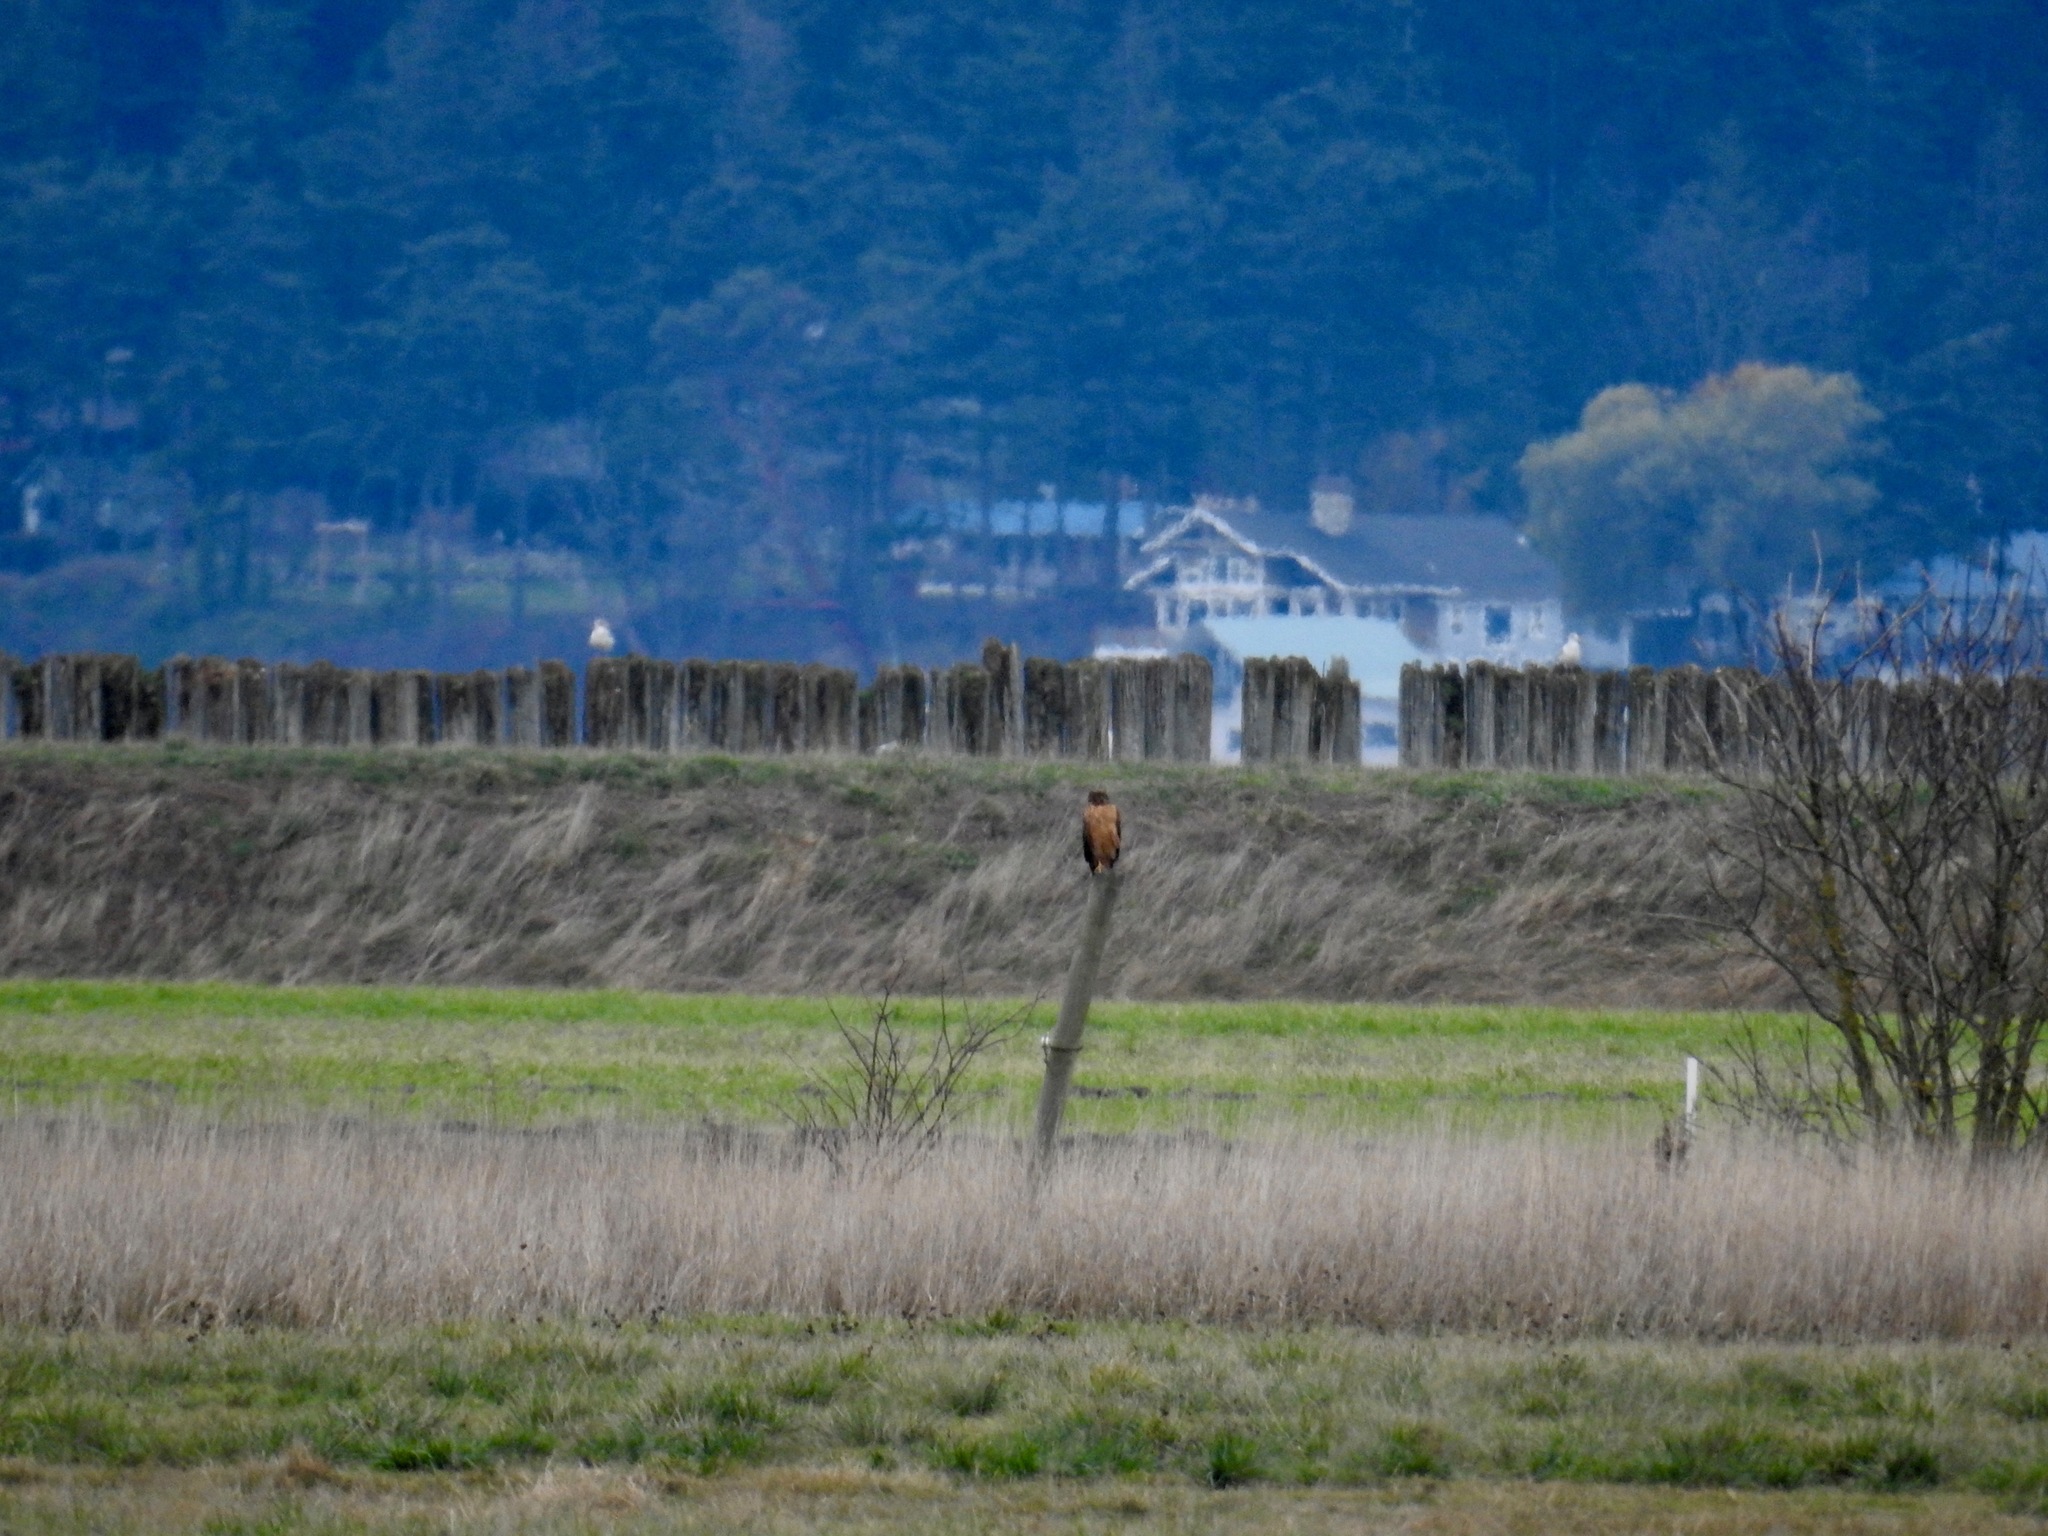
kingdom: Animalia
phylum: Chordata
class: Aves
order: Accipitriformes
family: Accipitridae
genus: Circus
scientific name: Circus cyaneus
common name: Hen harrier
